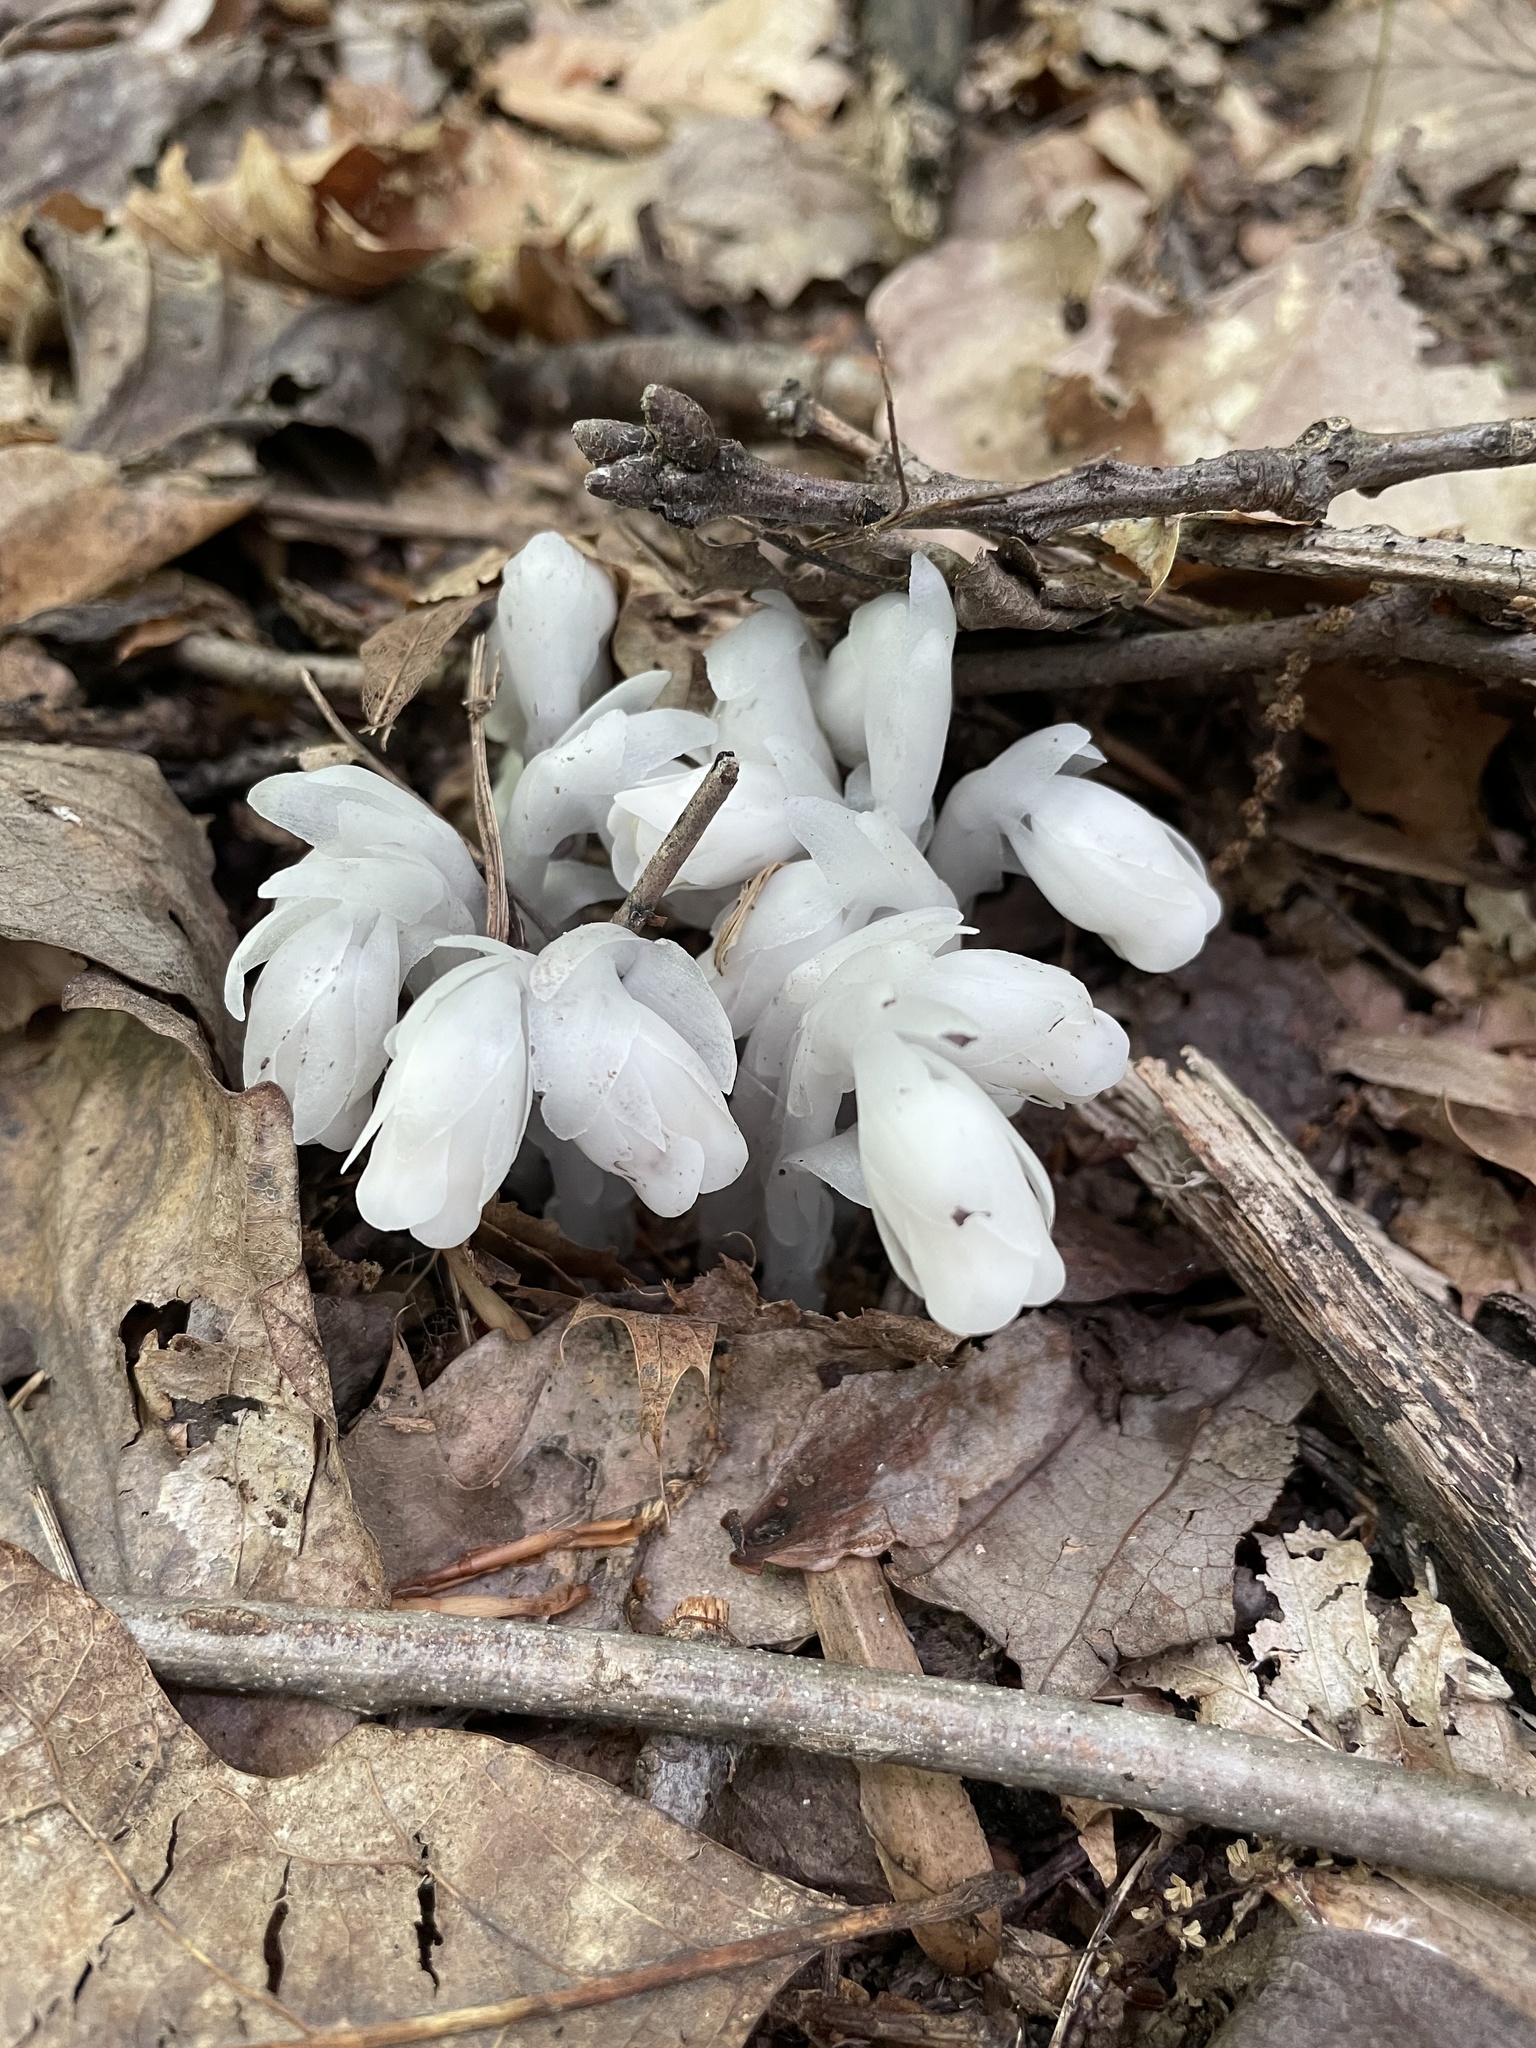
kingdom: Plantae
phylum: Tracheophyta
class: Magnoliopsida
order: Ericales
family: Ericaceae
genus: Monotropa
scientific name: Monotropa uniflora
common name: Convulsion root
